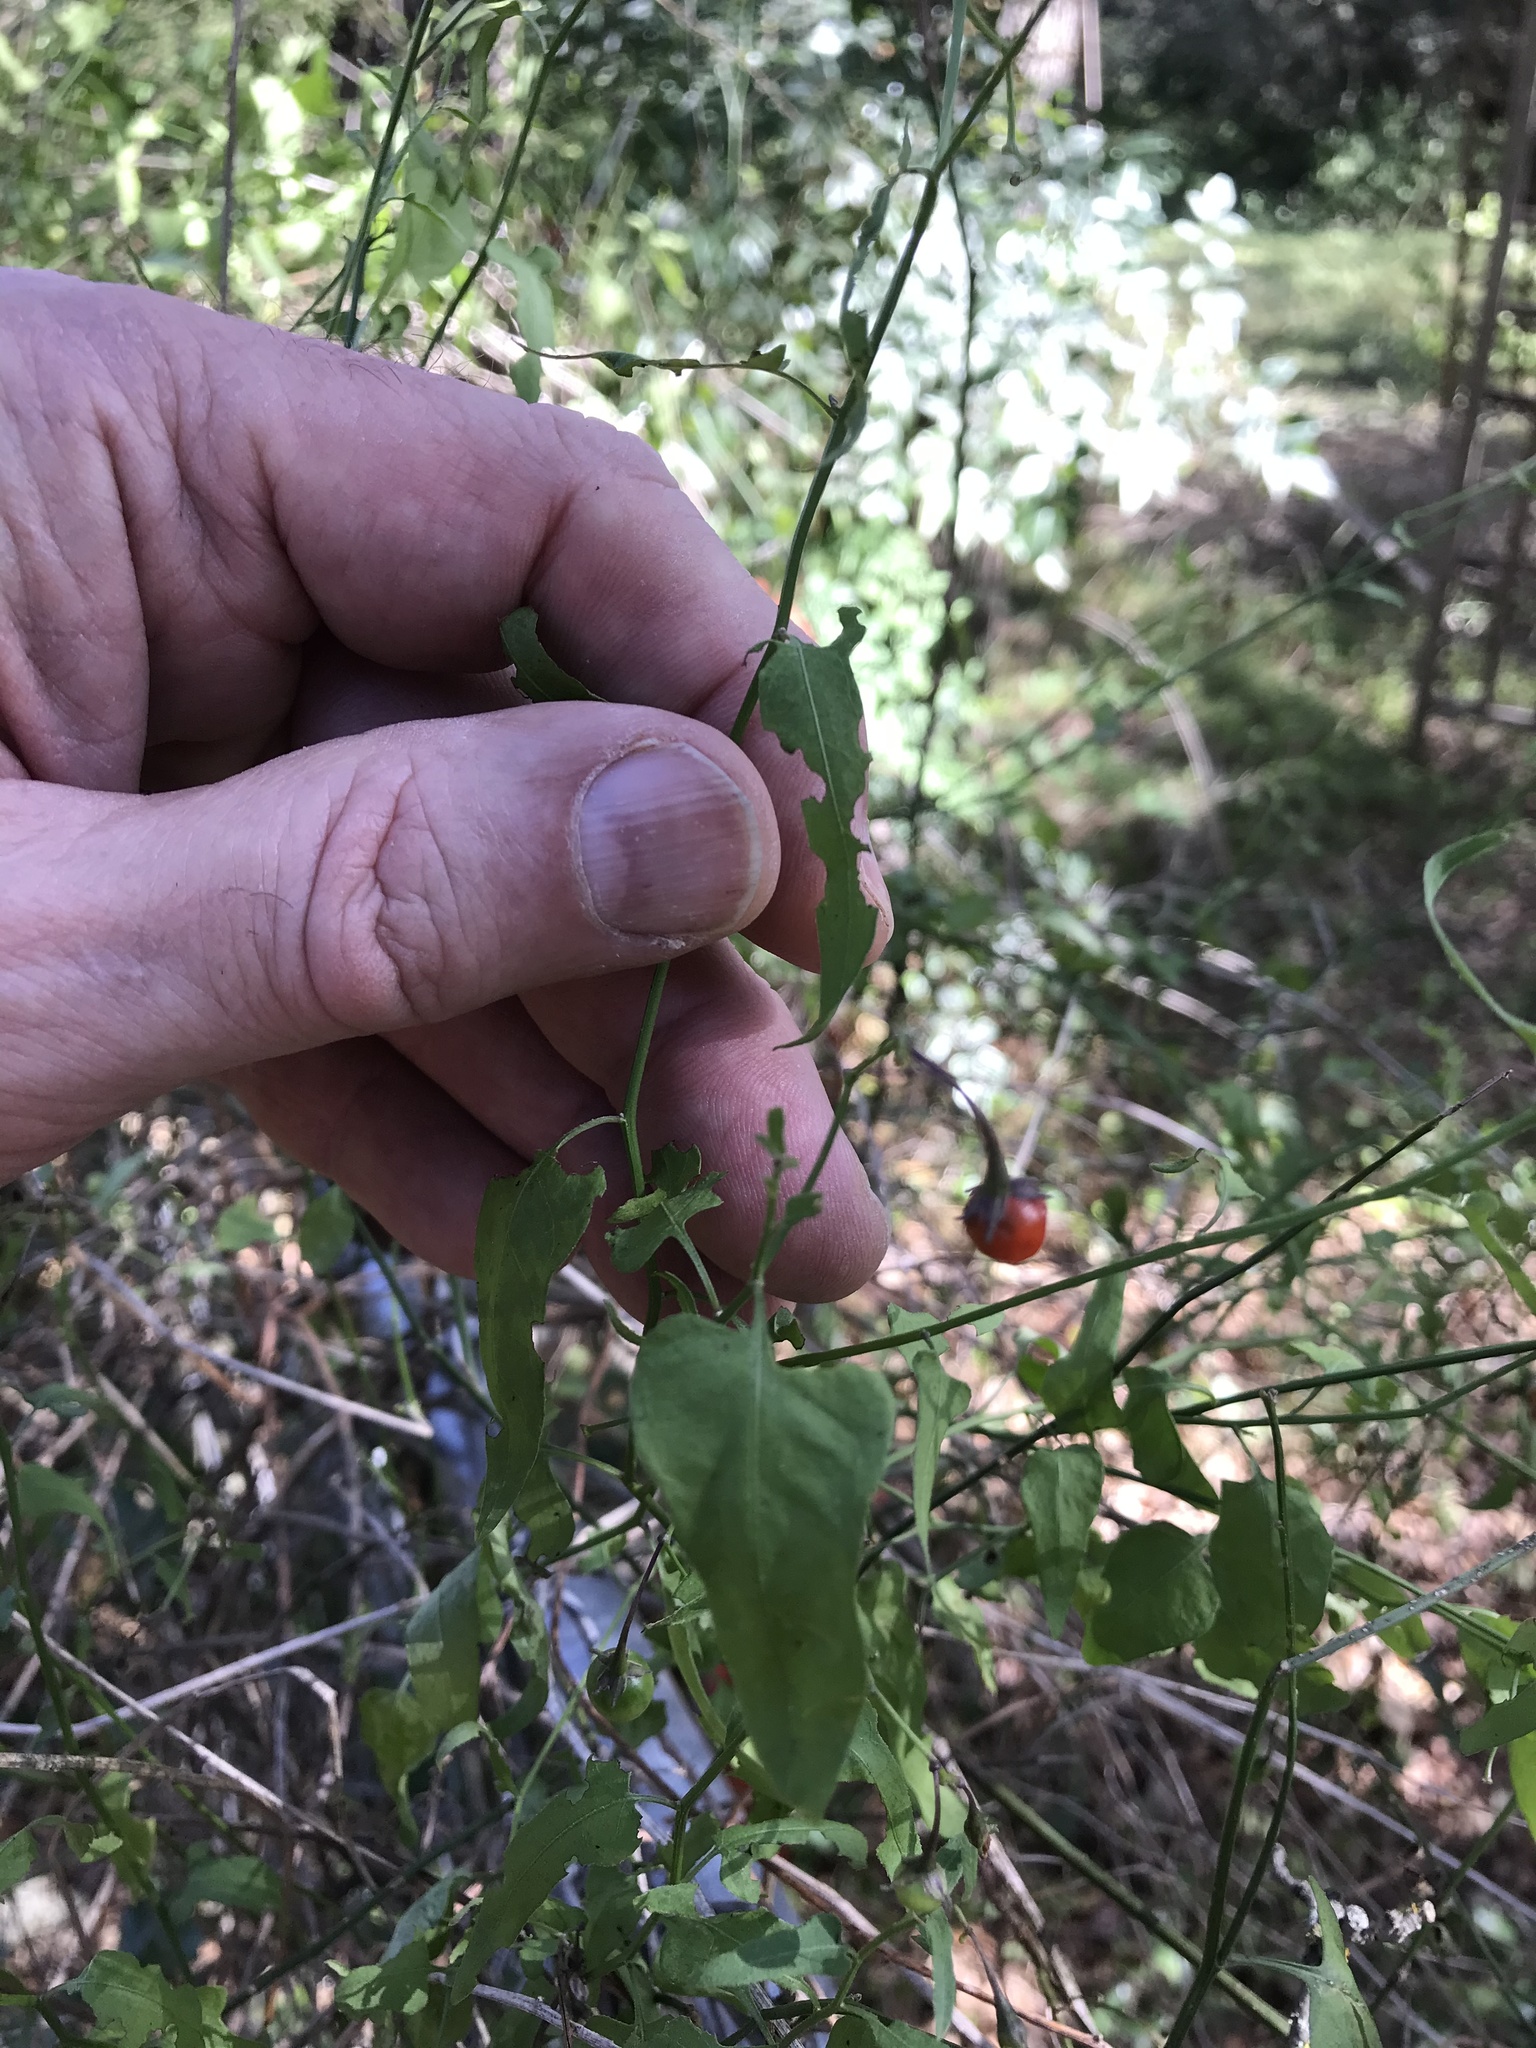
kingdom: Plantae
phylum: Tracheophyta
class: Magnoliopsida
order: Solanales
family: Solanaceae
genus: Solanum
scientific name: Solanum triquetrum
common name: Texas nightshade
